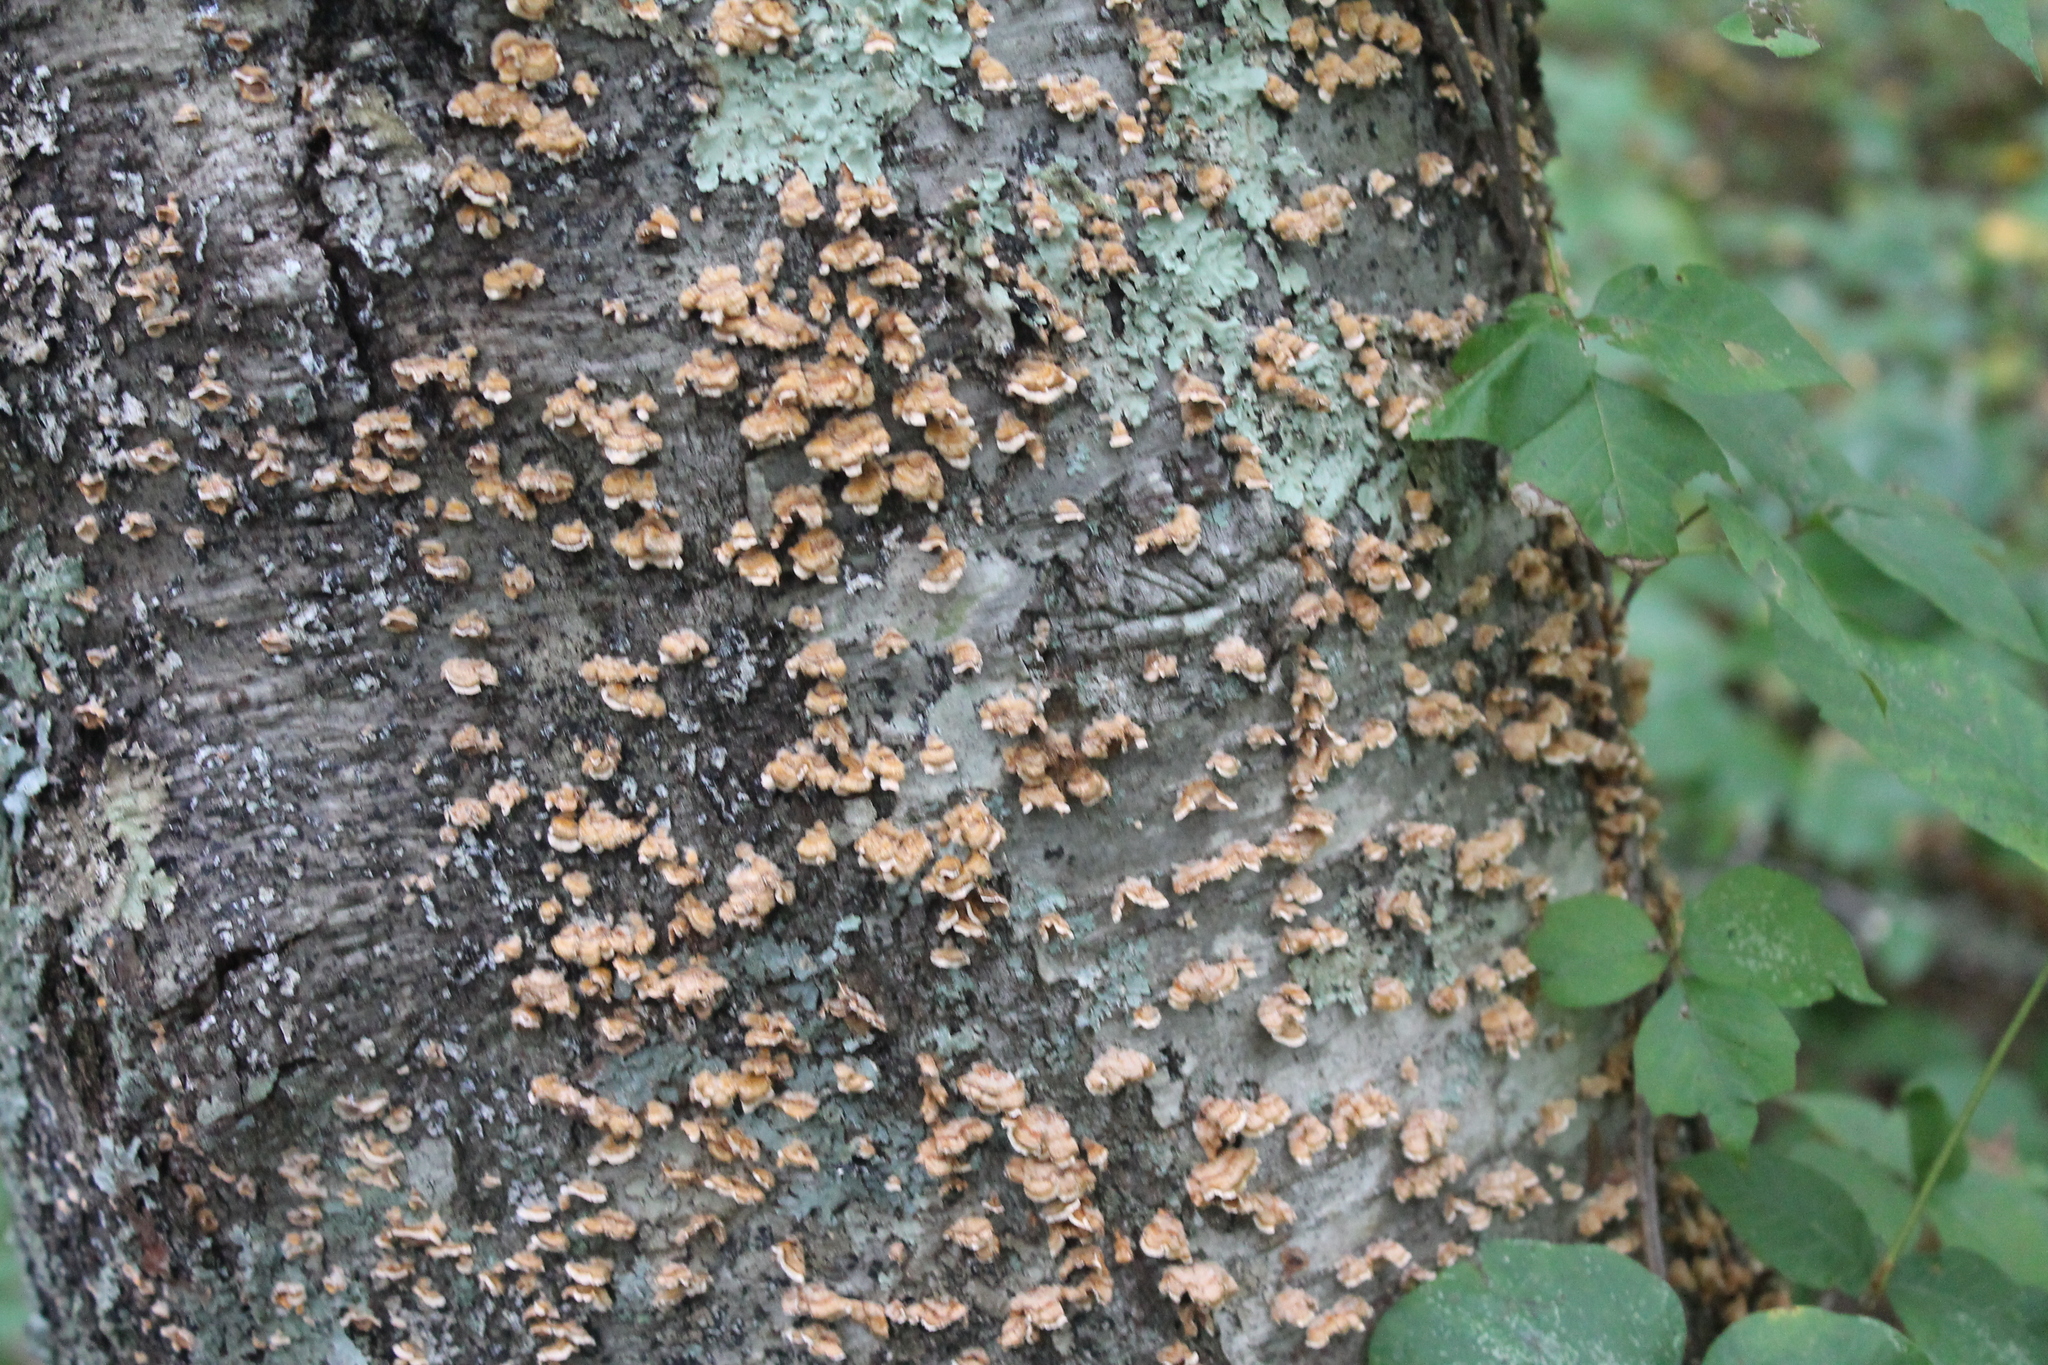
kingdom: Fungi
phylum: Basidiomycota
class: Agaricomycetes
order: Russulales
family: Stereaceae
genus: Stereum
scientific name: Stereum complicatum
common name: Crowded parchment
